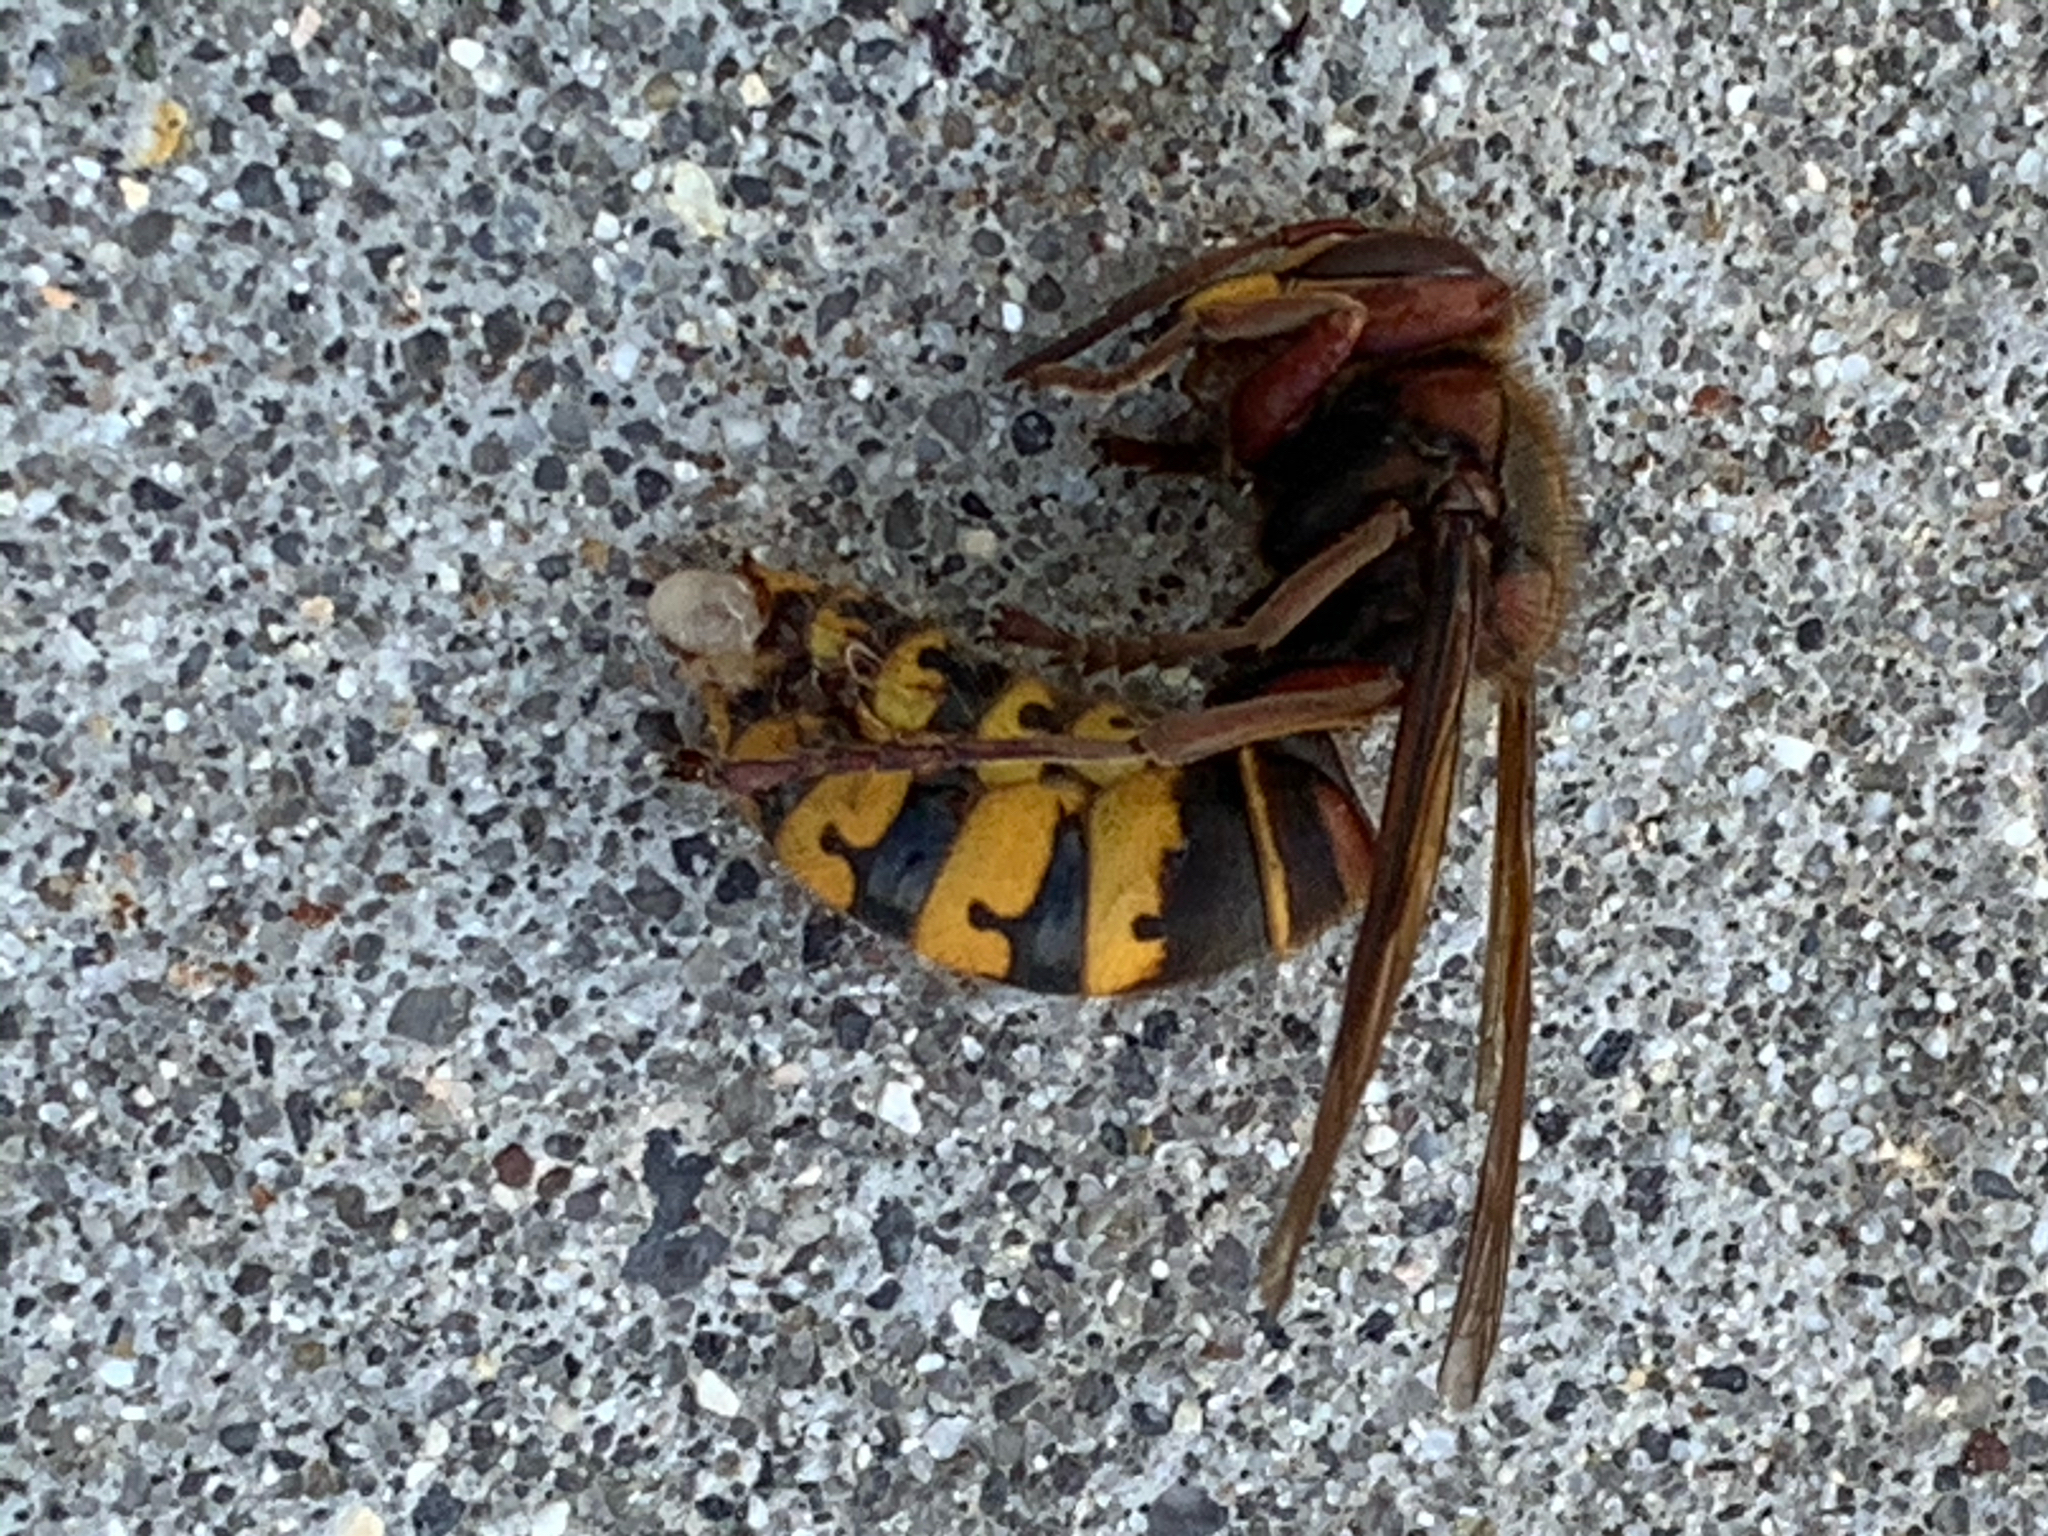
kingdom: Animalia
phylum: Arthropoda
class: Insecta
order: Hymenoptera
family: Vespidae
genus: Vespa
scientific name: Vespa crabro
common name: Hornet
